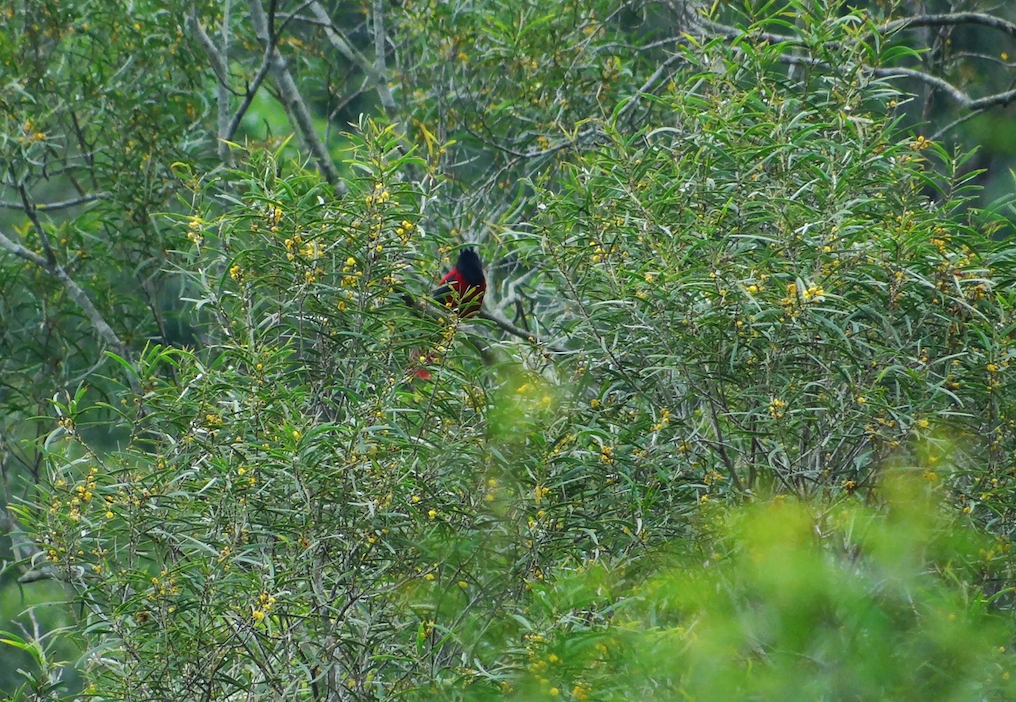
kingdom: Animalia
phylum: Chordata
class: Aves
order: Passeriformes
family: Oriolidae
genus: Oriolus
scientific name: Oriolus traillii
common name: Maroon oriole
